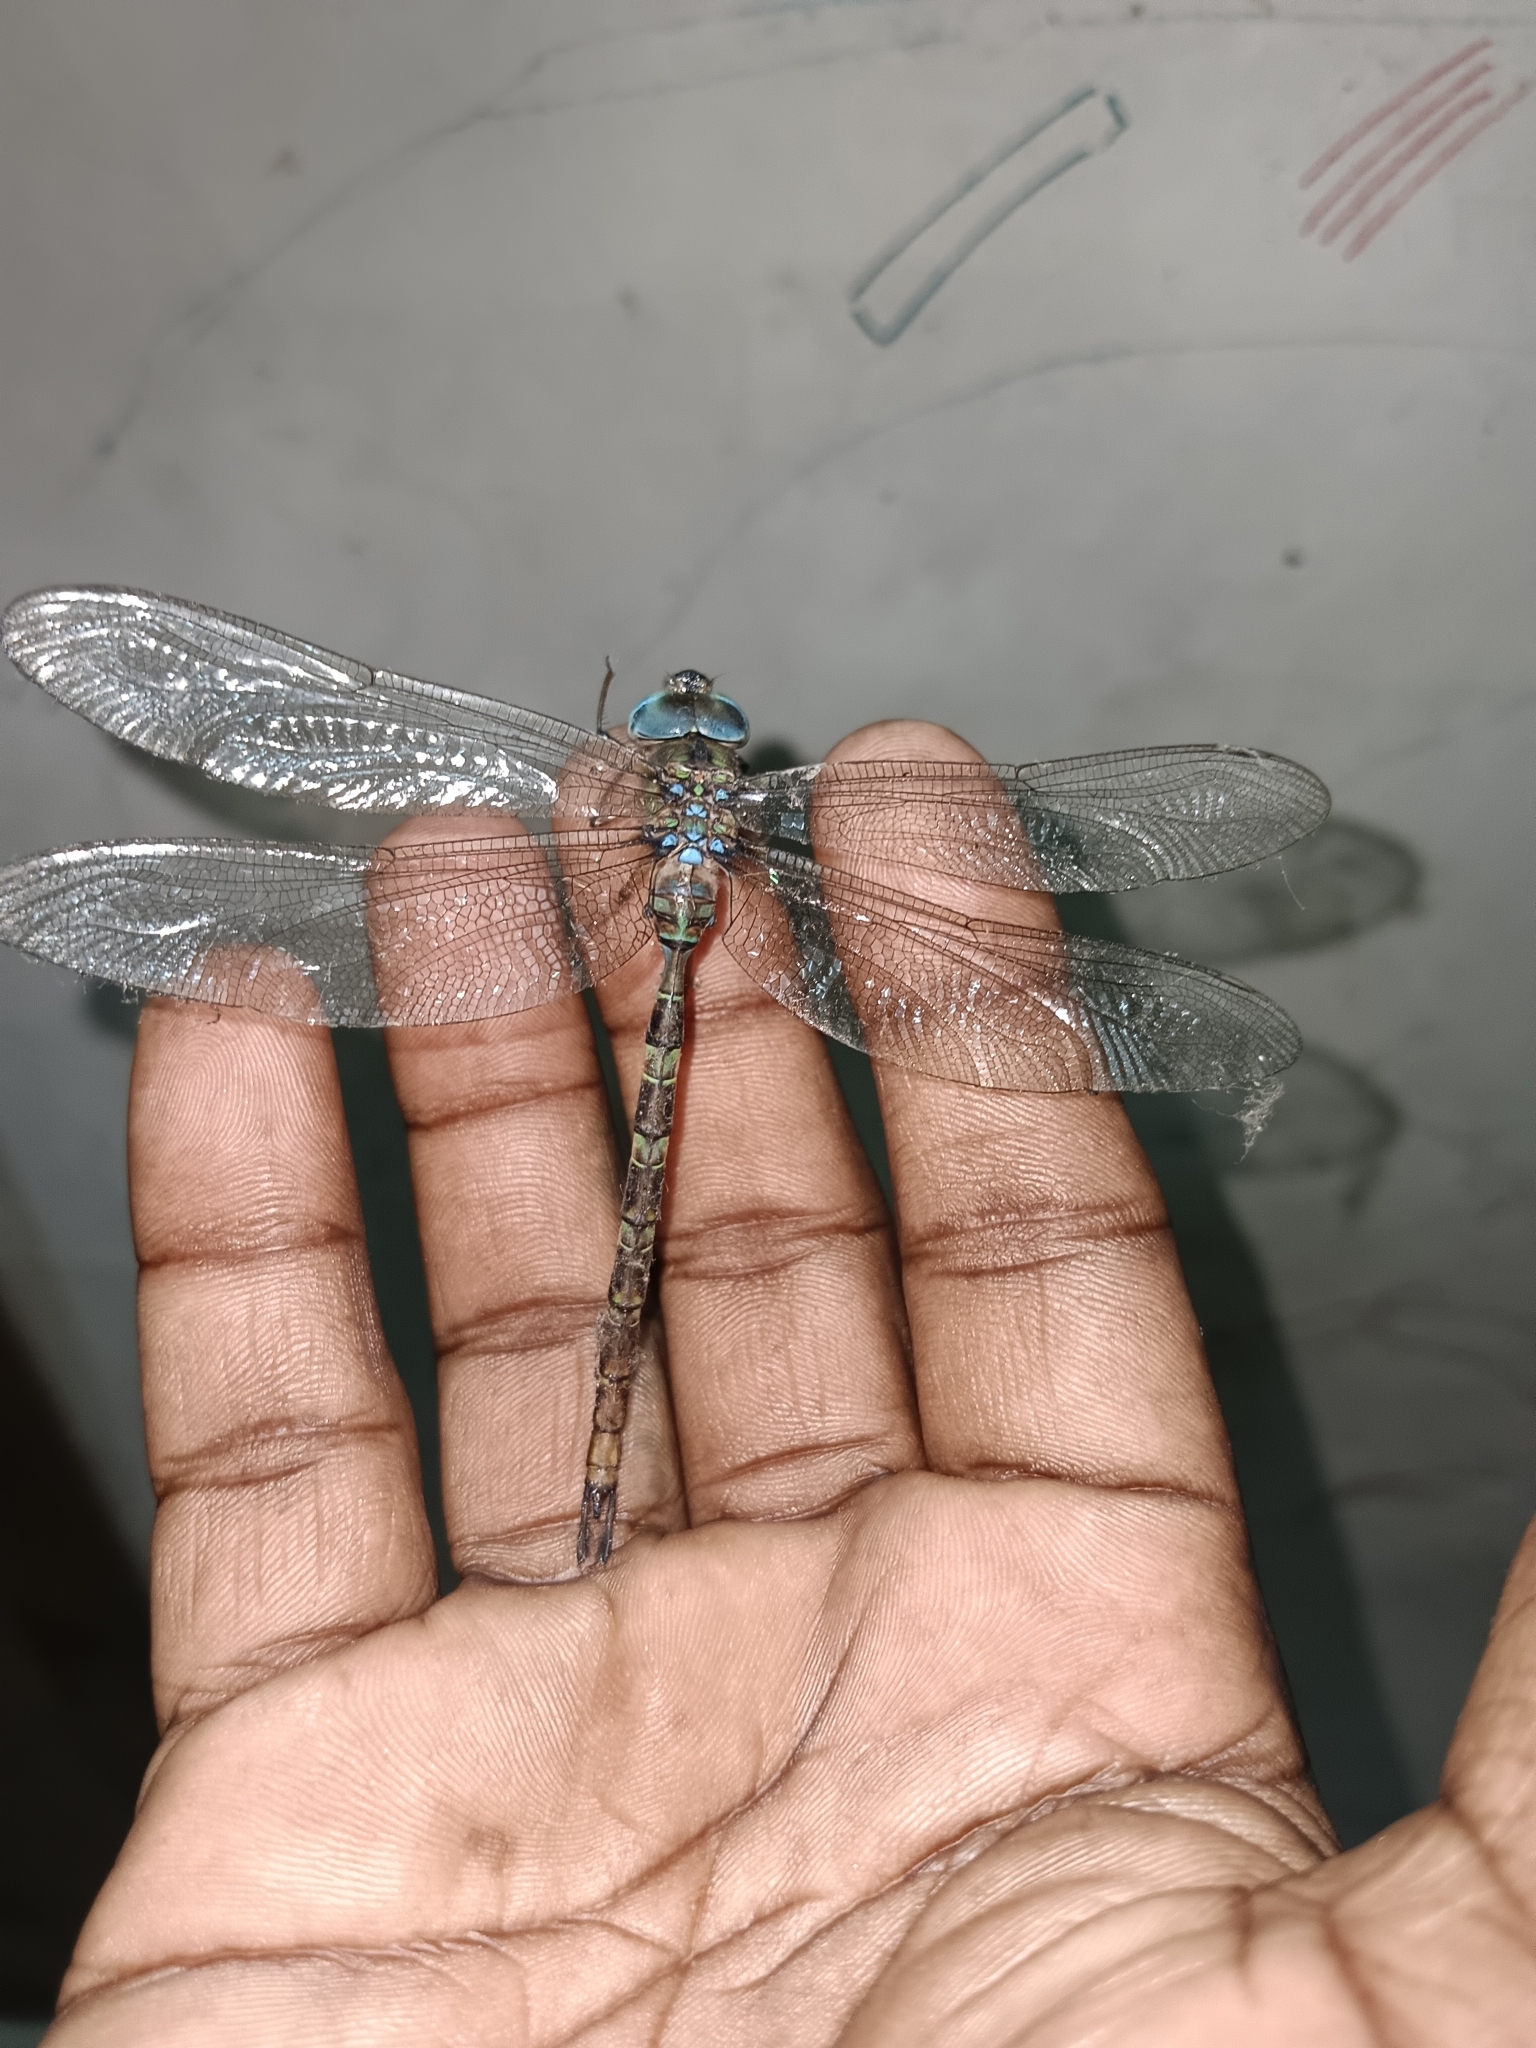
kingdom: Animalia
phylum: Arthropoda
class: Insecta
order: Odonata
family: Aeshnidae
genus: Gynacantha
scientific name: Gynacantha dravida
